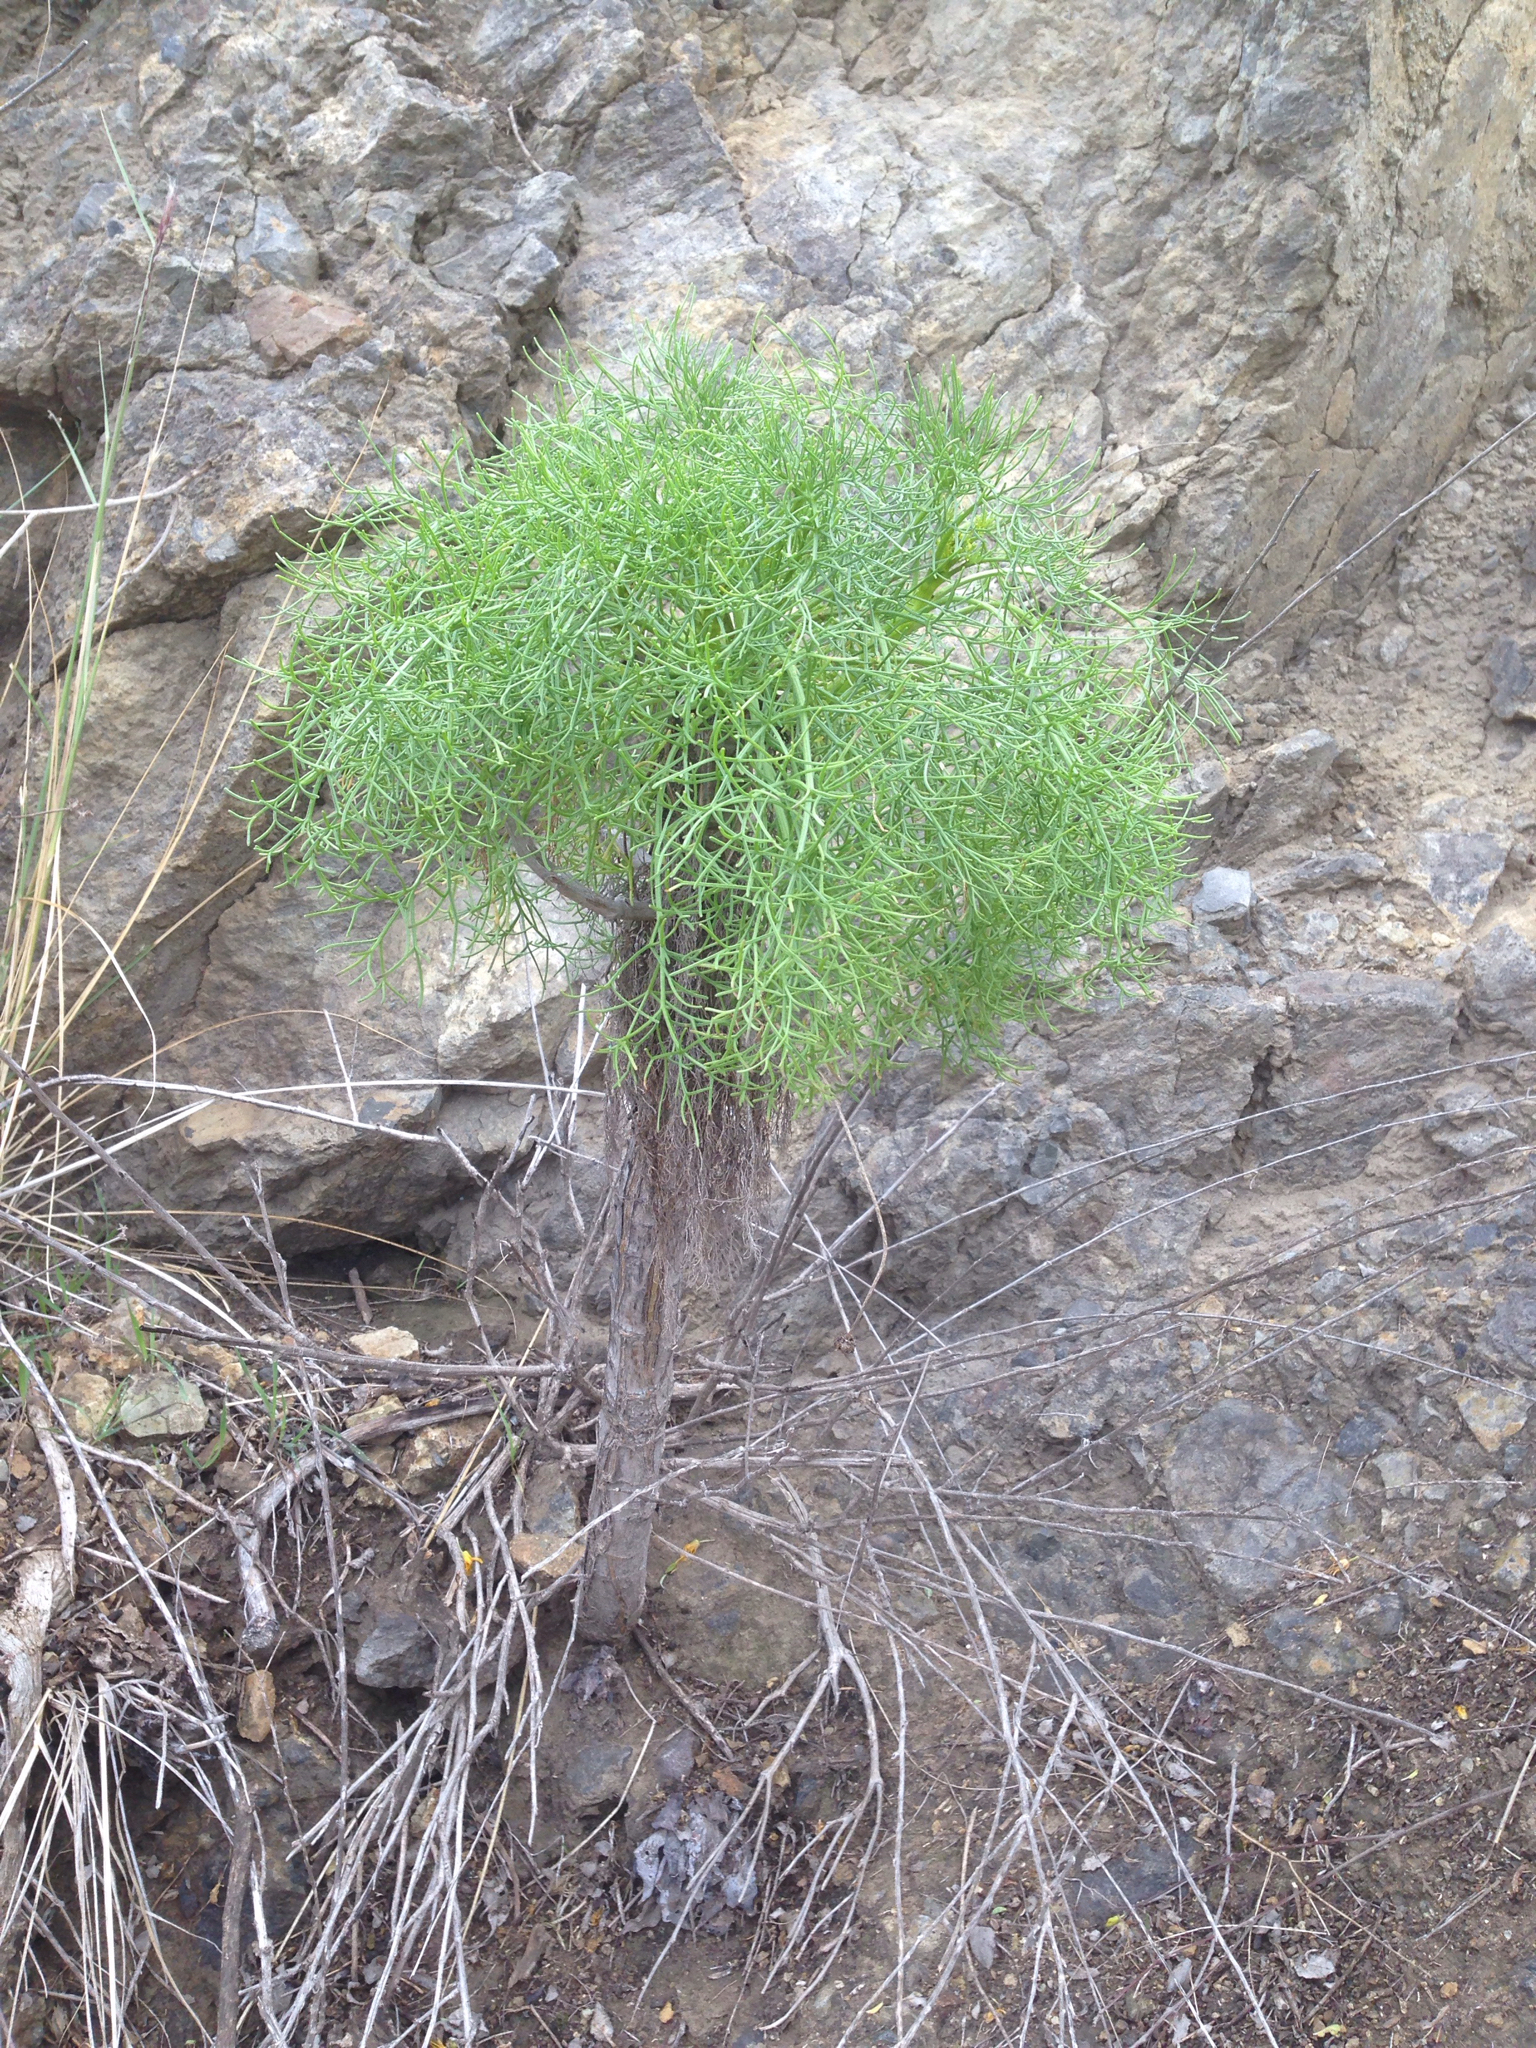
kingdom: Plantae
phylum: Tracheophyta
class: Magnoliopsida
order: Asterales
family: Asteraceae
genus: Coreopsis
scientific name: Coreopsis gigantea
